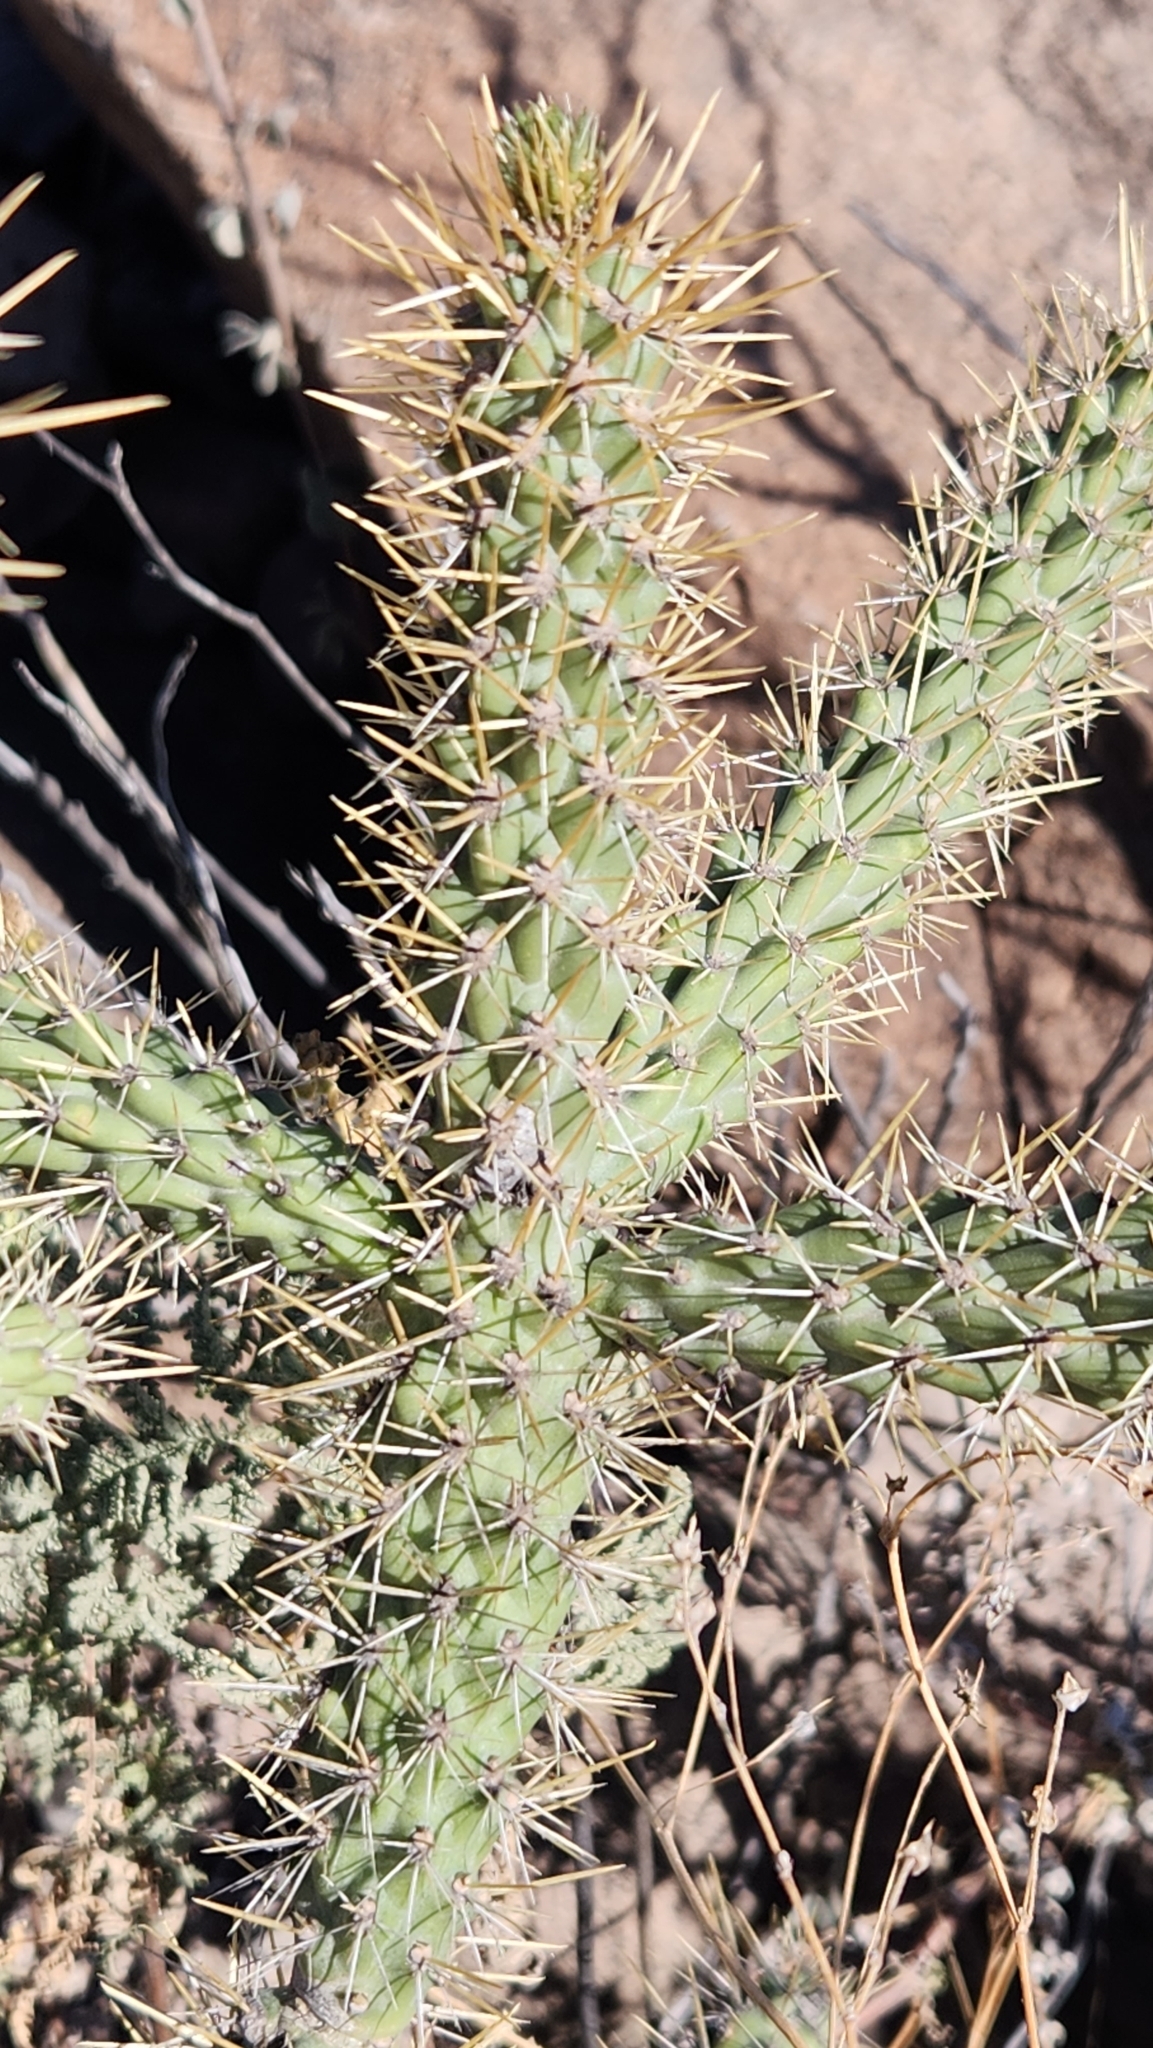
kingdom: Plantae
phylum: Tracheophyta
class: Magnoliopsida
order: Caryophyllales
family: Cactaceae
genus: Cylindropuntia
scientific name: Cylindropuntia alcahes
